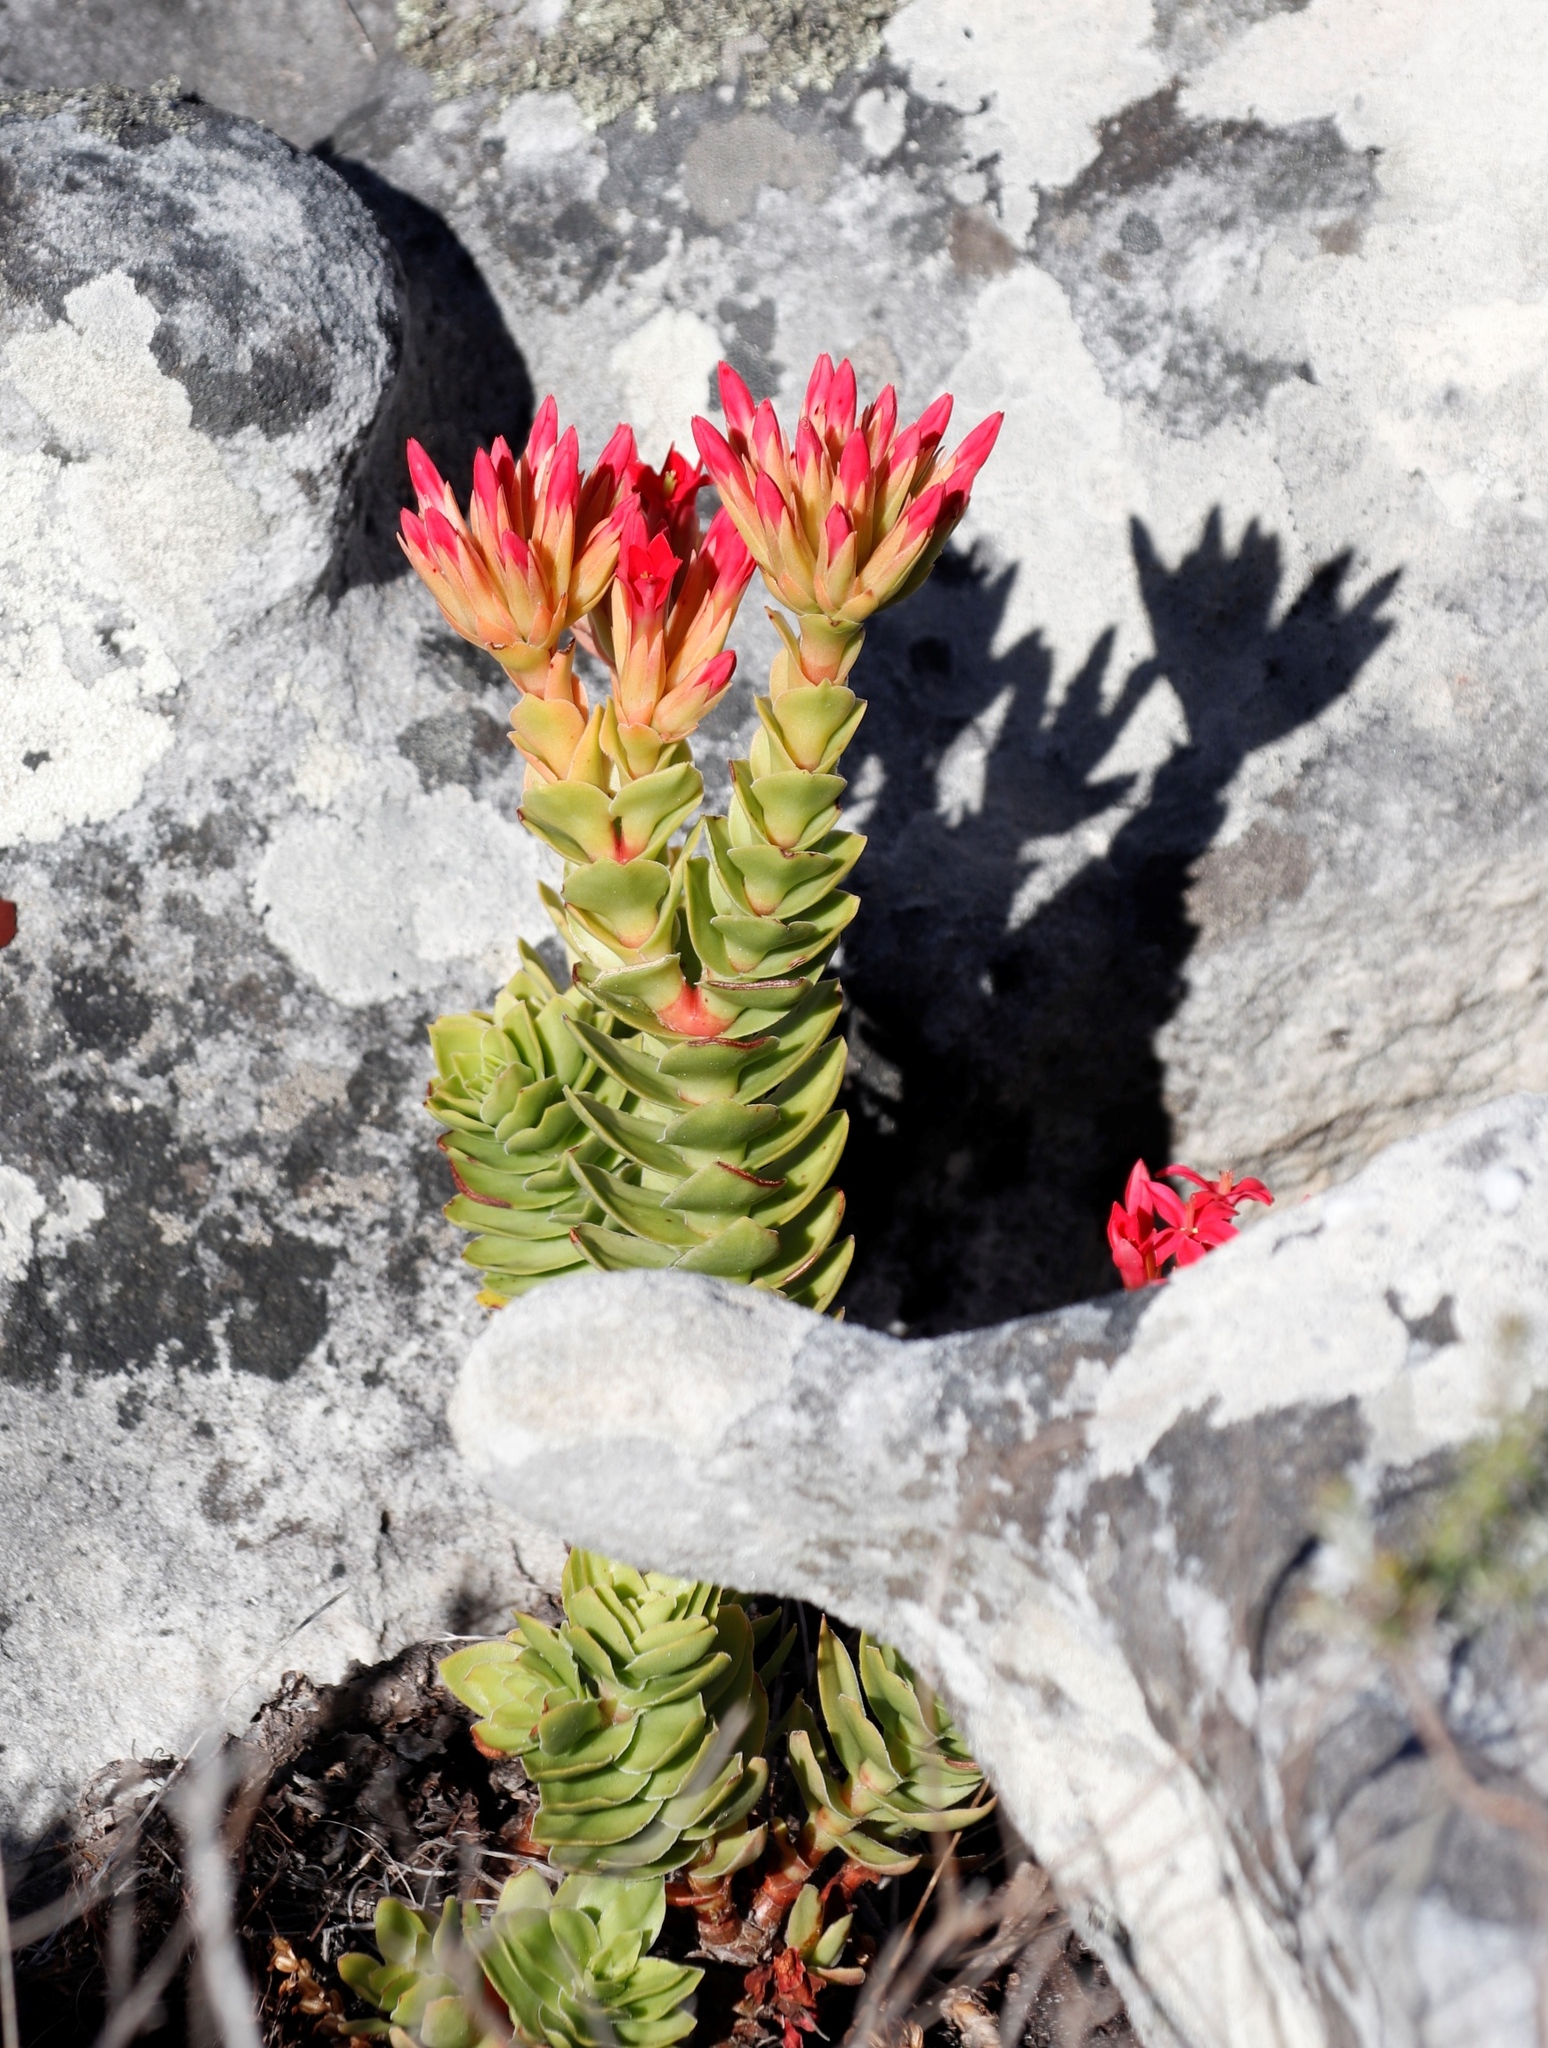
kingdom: Plantae
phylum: Tracheophyta
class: Magnoliopsida
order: Saxifragales
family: Crassulaceae
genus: Crassula
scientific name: Crassula coccinea
